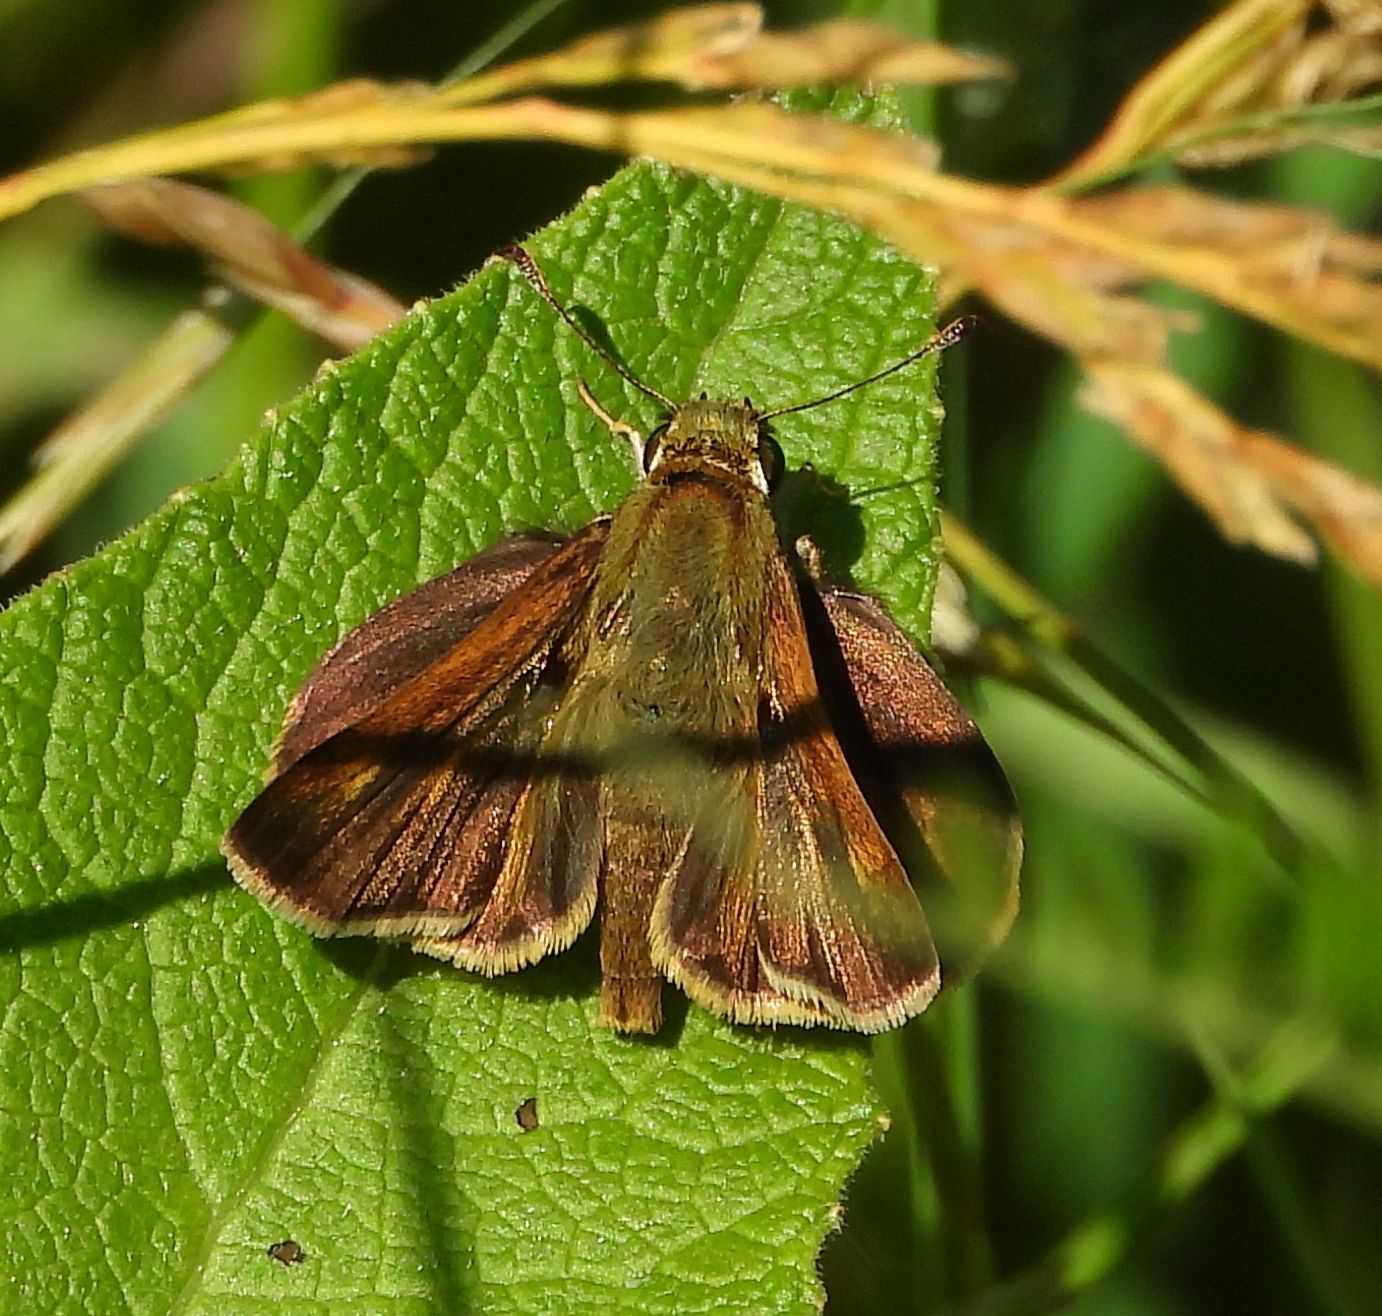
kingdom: Animalia
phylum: Arthropoda
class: Insecta
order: Lepidoptera
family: Hesperiidae
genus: Polites
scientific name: Polites egeremet
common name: Northern broken-dash
